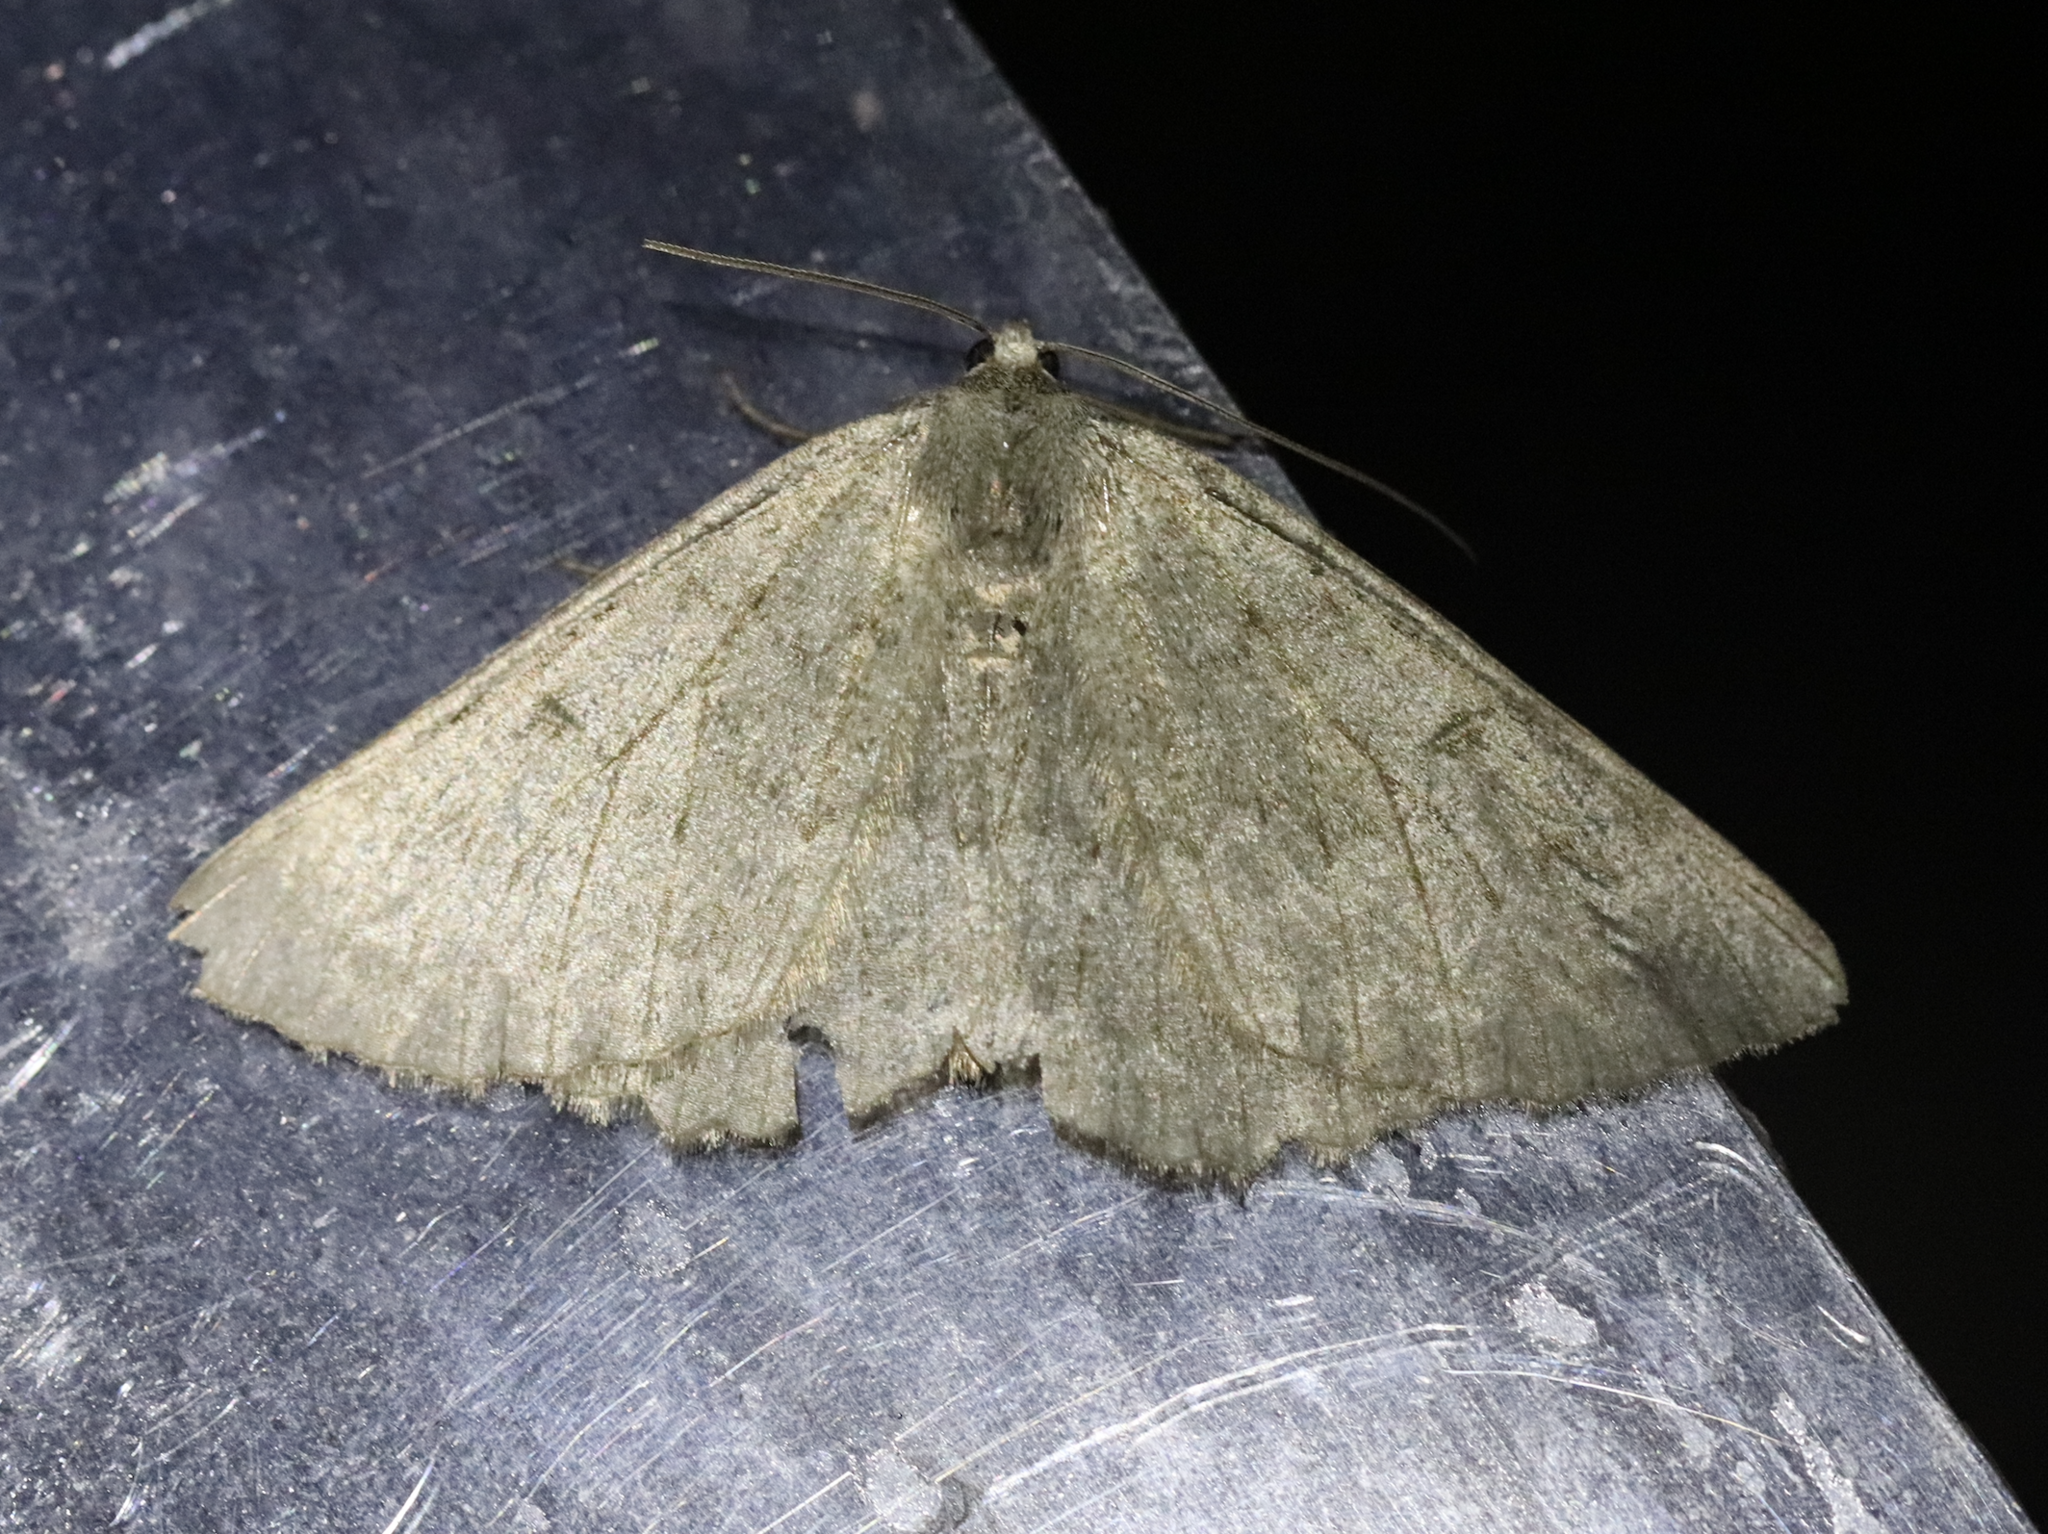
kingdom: Animalia
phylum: Arthropoda
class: Insecta
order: Lepidoptera
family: Geometridae
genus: Gnophos
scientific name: Gnophos obfuscata
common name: Scottish annulet
